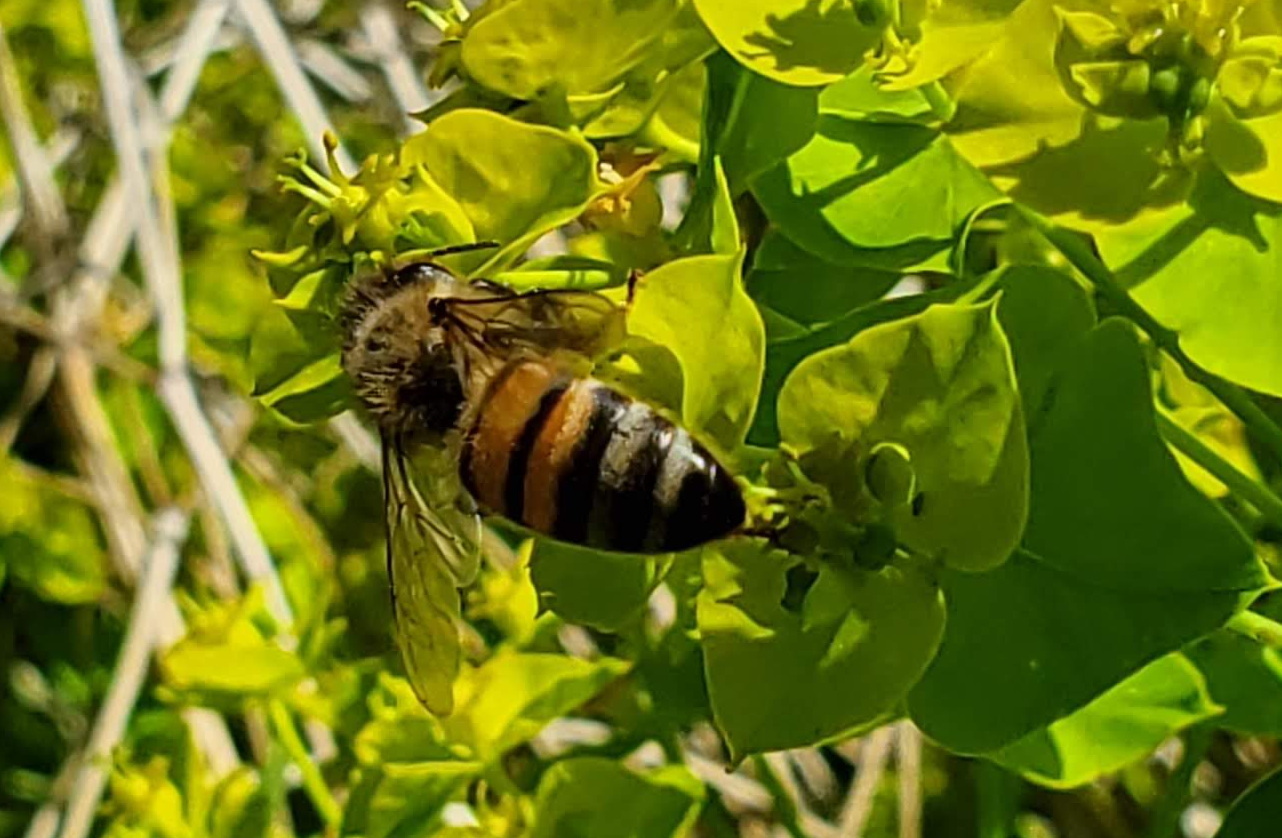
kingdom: Animalia
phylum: Arthropoda
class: Insecta
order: Hymenoptera
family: Apidae
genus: Apis
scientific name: Apis mellifera
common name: Honey bee
